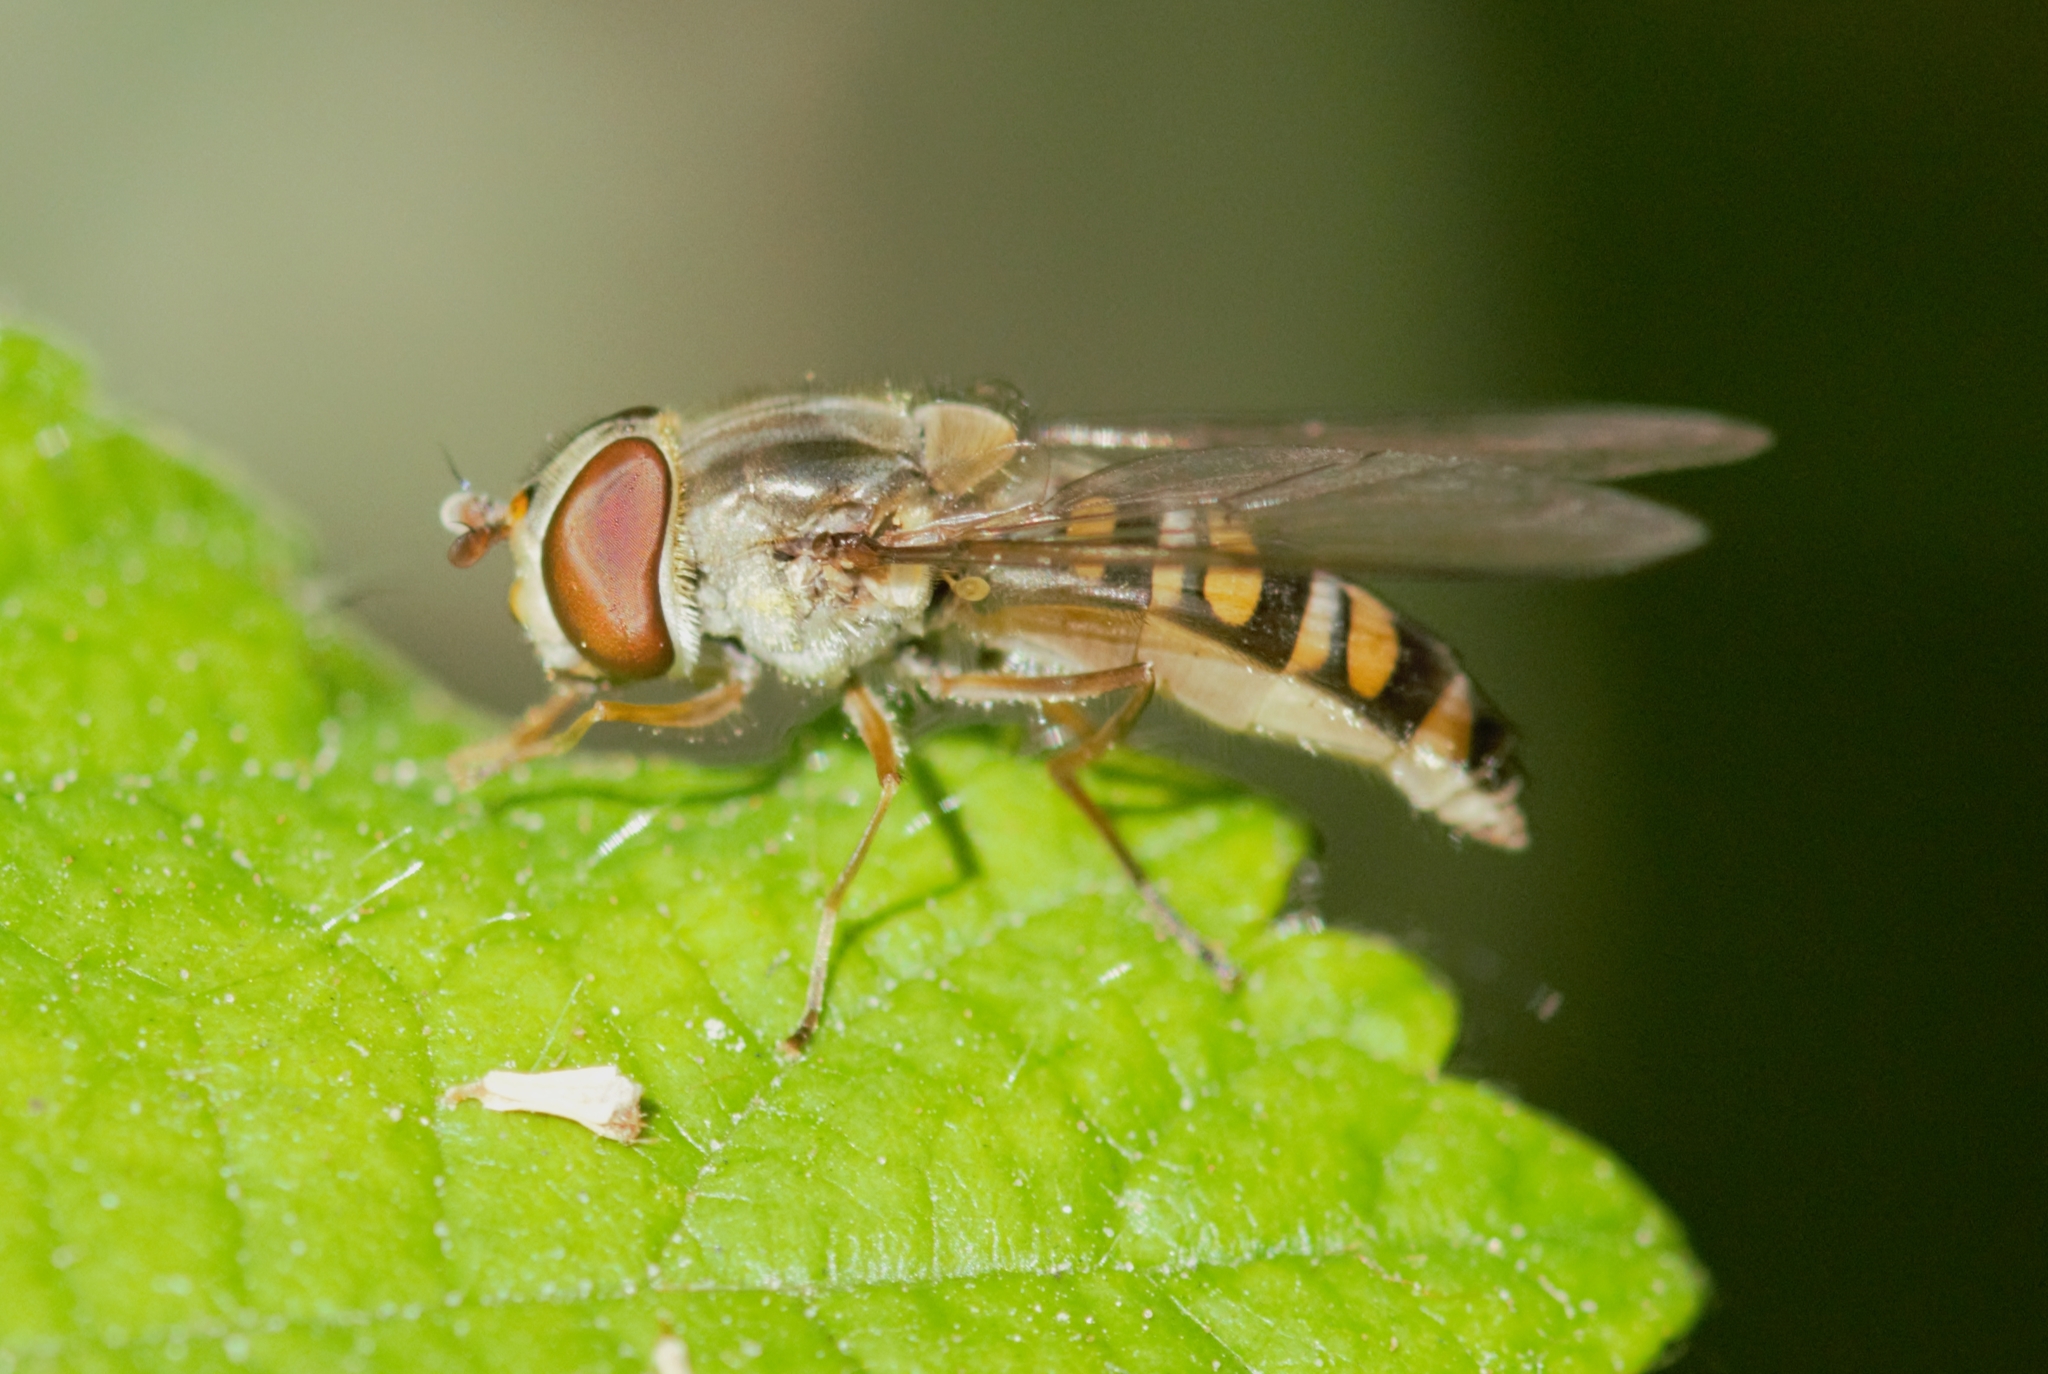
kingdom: Animalia
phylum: Arthropoda
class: Insecta
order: Diptera
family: Syrphidae
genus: Episyrphus
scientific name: Episyrphus balteatus
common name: Marmalade hoverfly
